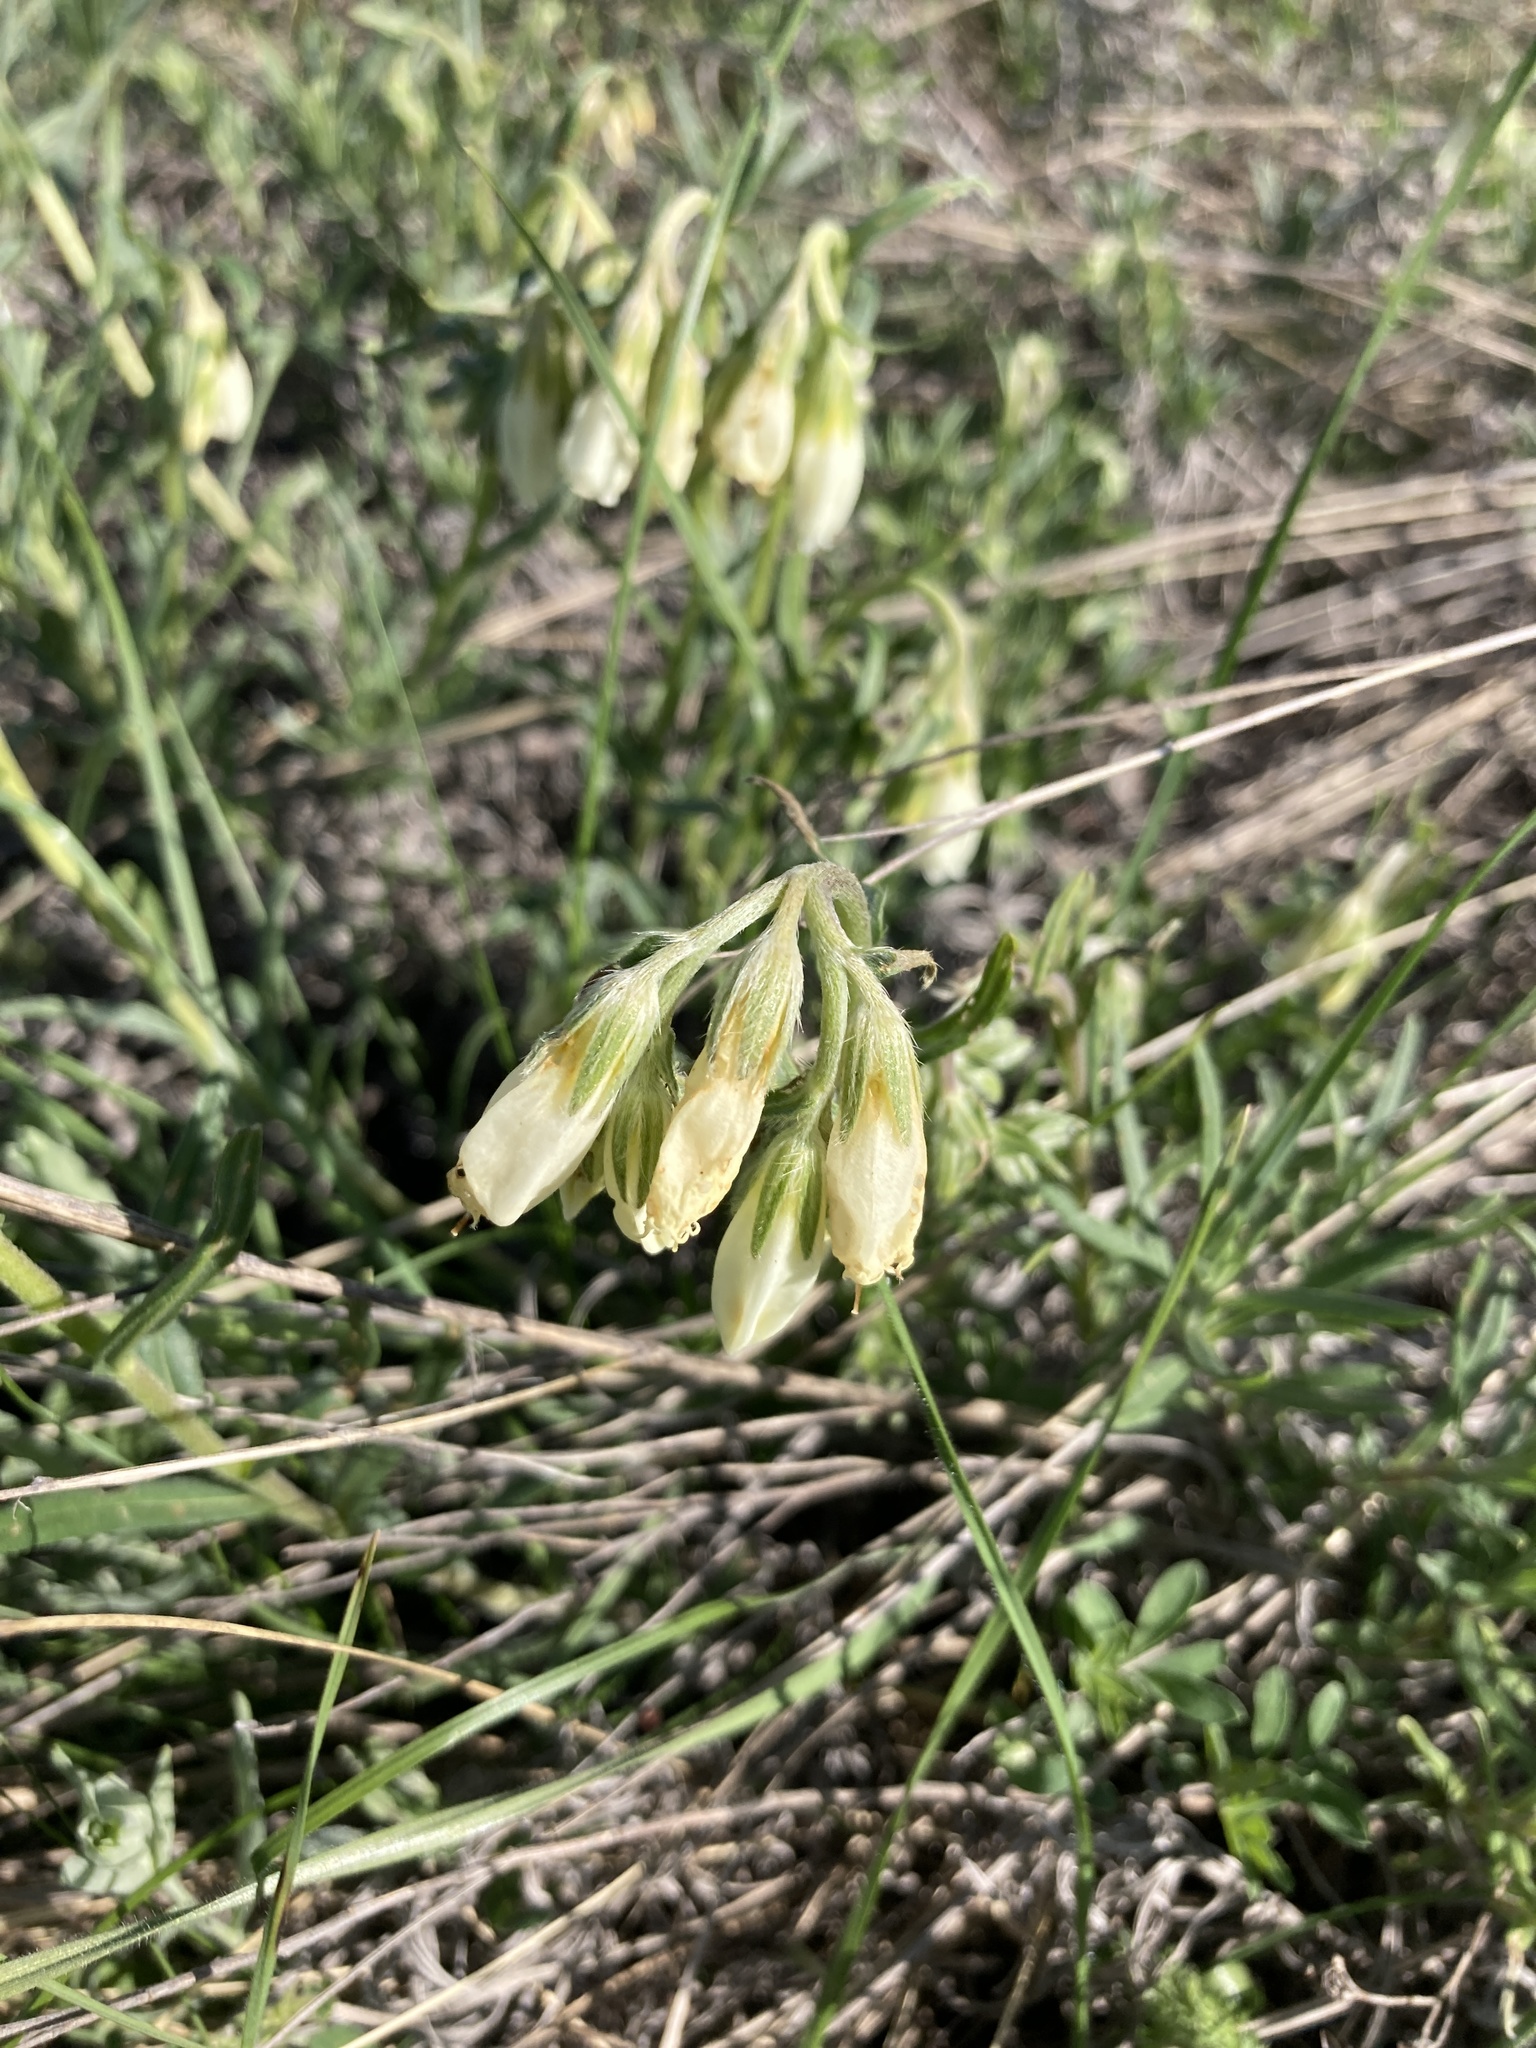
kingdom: Plantae
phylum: Tracheophyta
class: Magnoliopsida
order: Boraginales
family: Boraginaceae
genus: Onosma
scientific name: Onosma simplicissima
